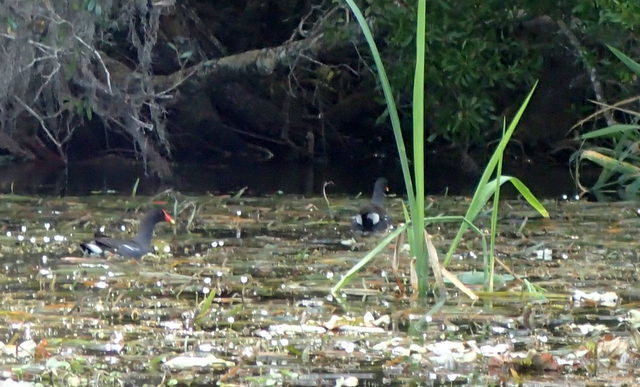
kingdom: Animalia
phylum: Chordata
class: Aves
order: Gruiformes
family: Rallidae
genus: Gallinula
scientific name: Gallinula chloropus
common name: Common moorhen
